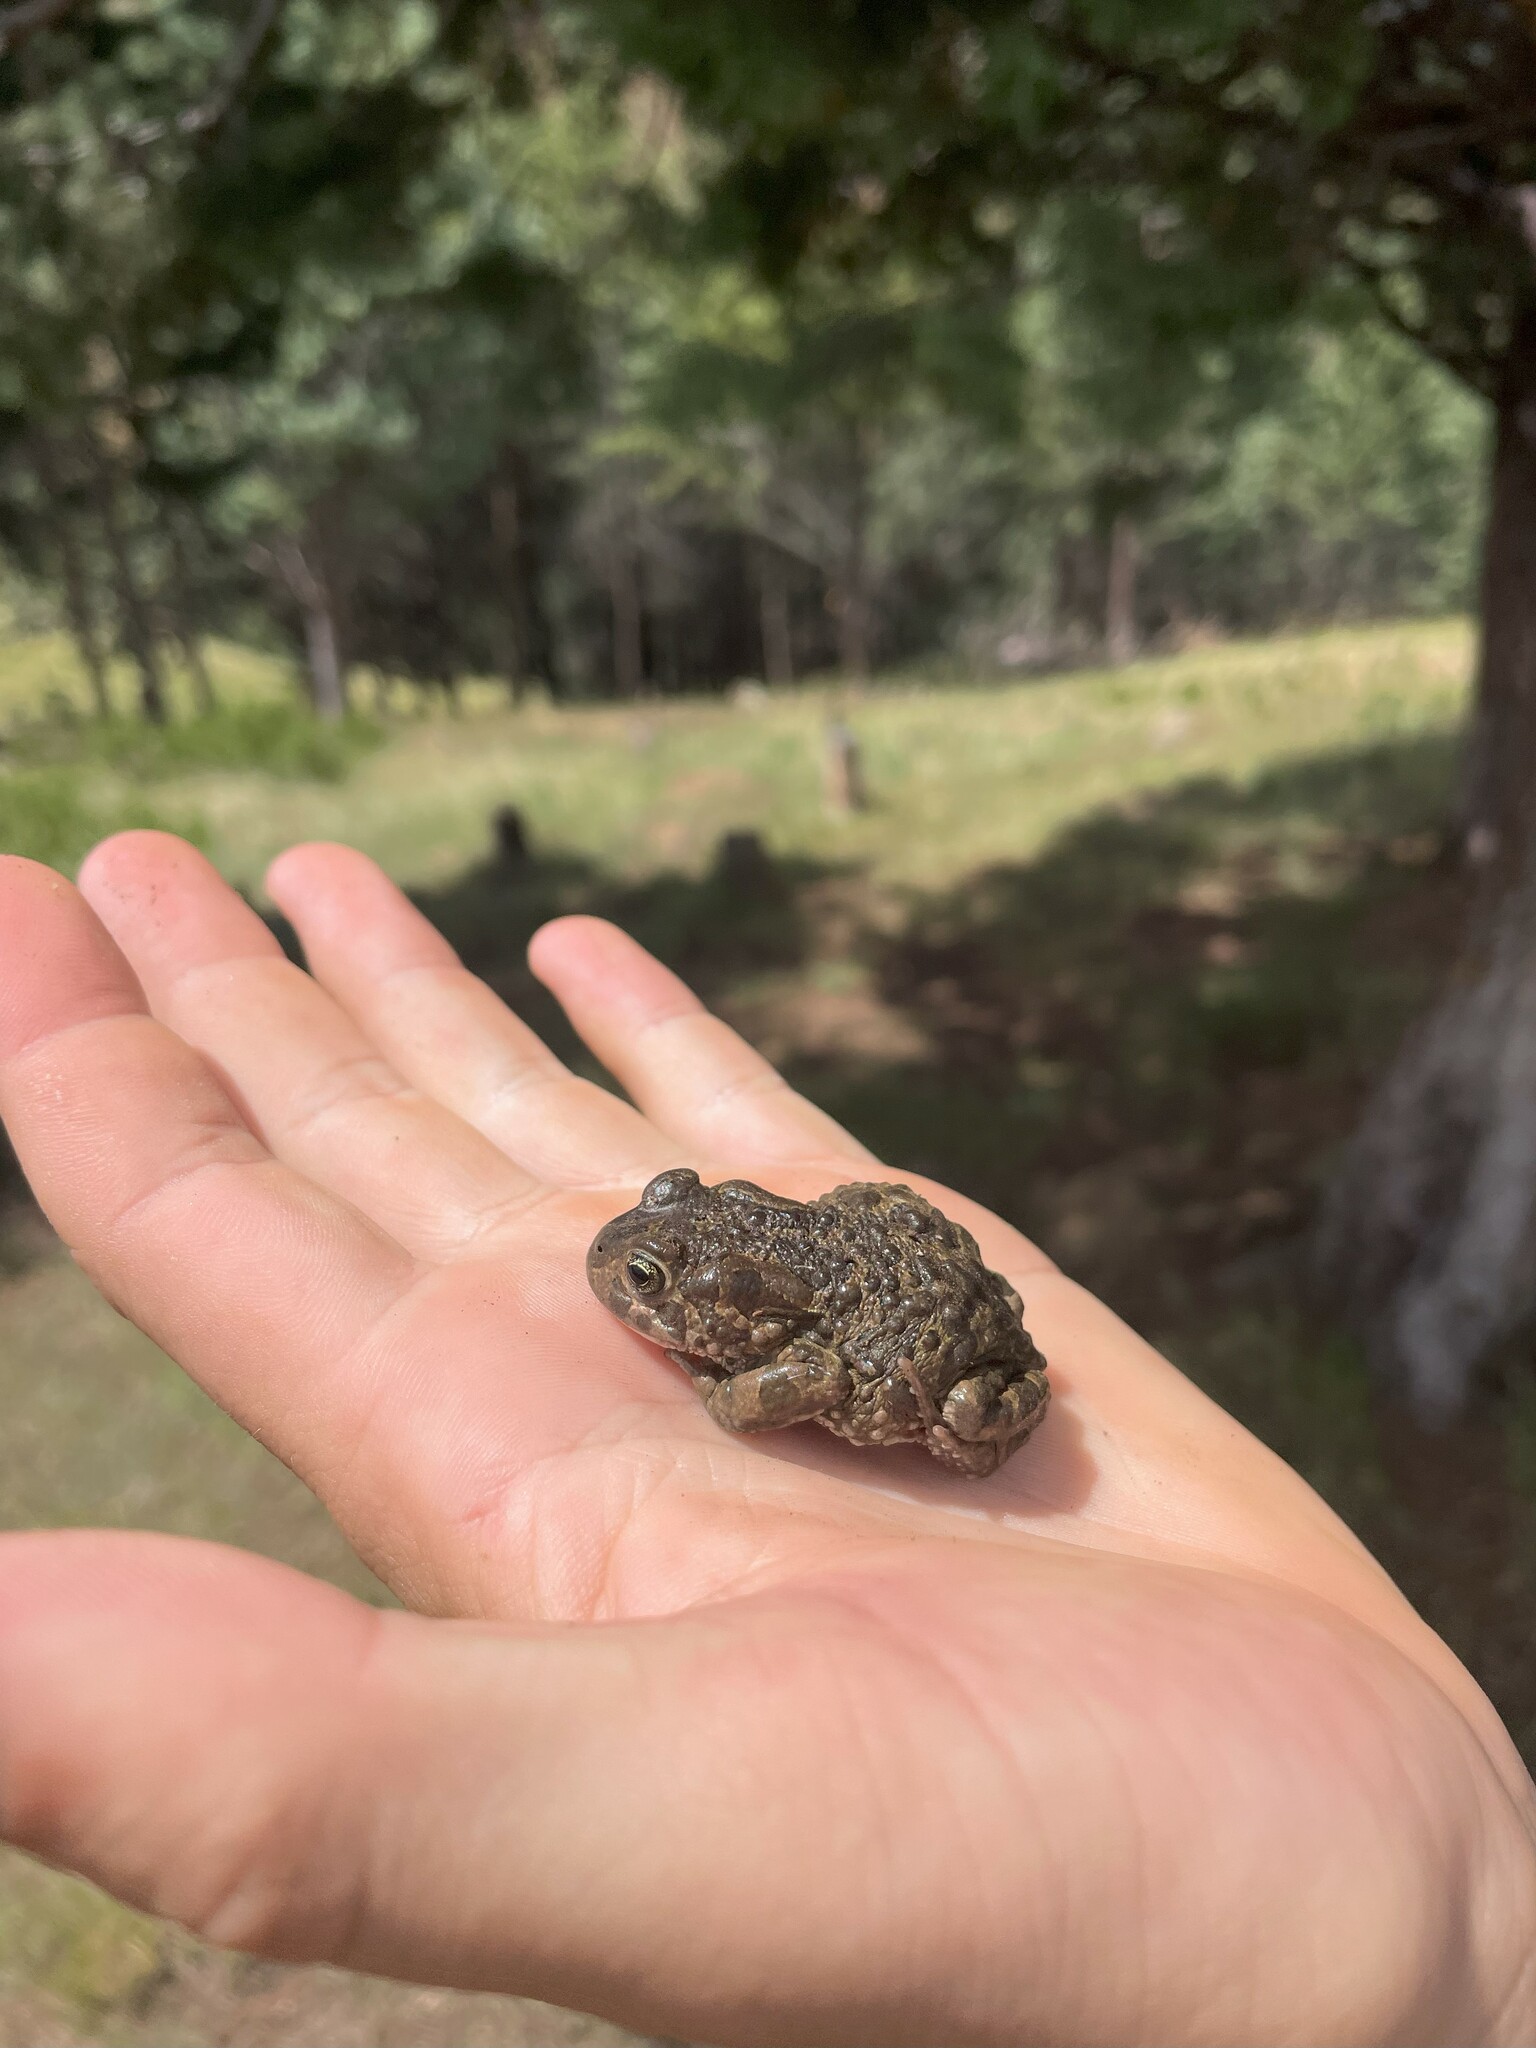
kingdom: Animalia
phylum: Chordata
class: Amphibia
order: Anura
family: Bufonidae
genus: Vandijkophrynus
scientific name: Vandijkophrynus
